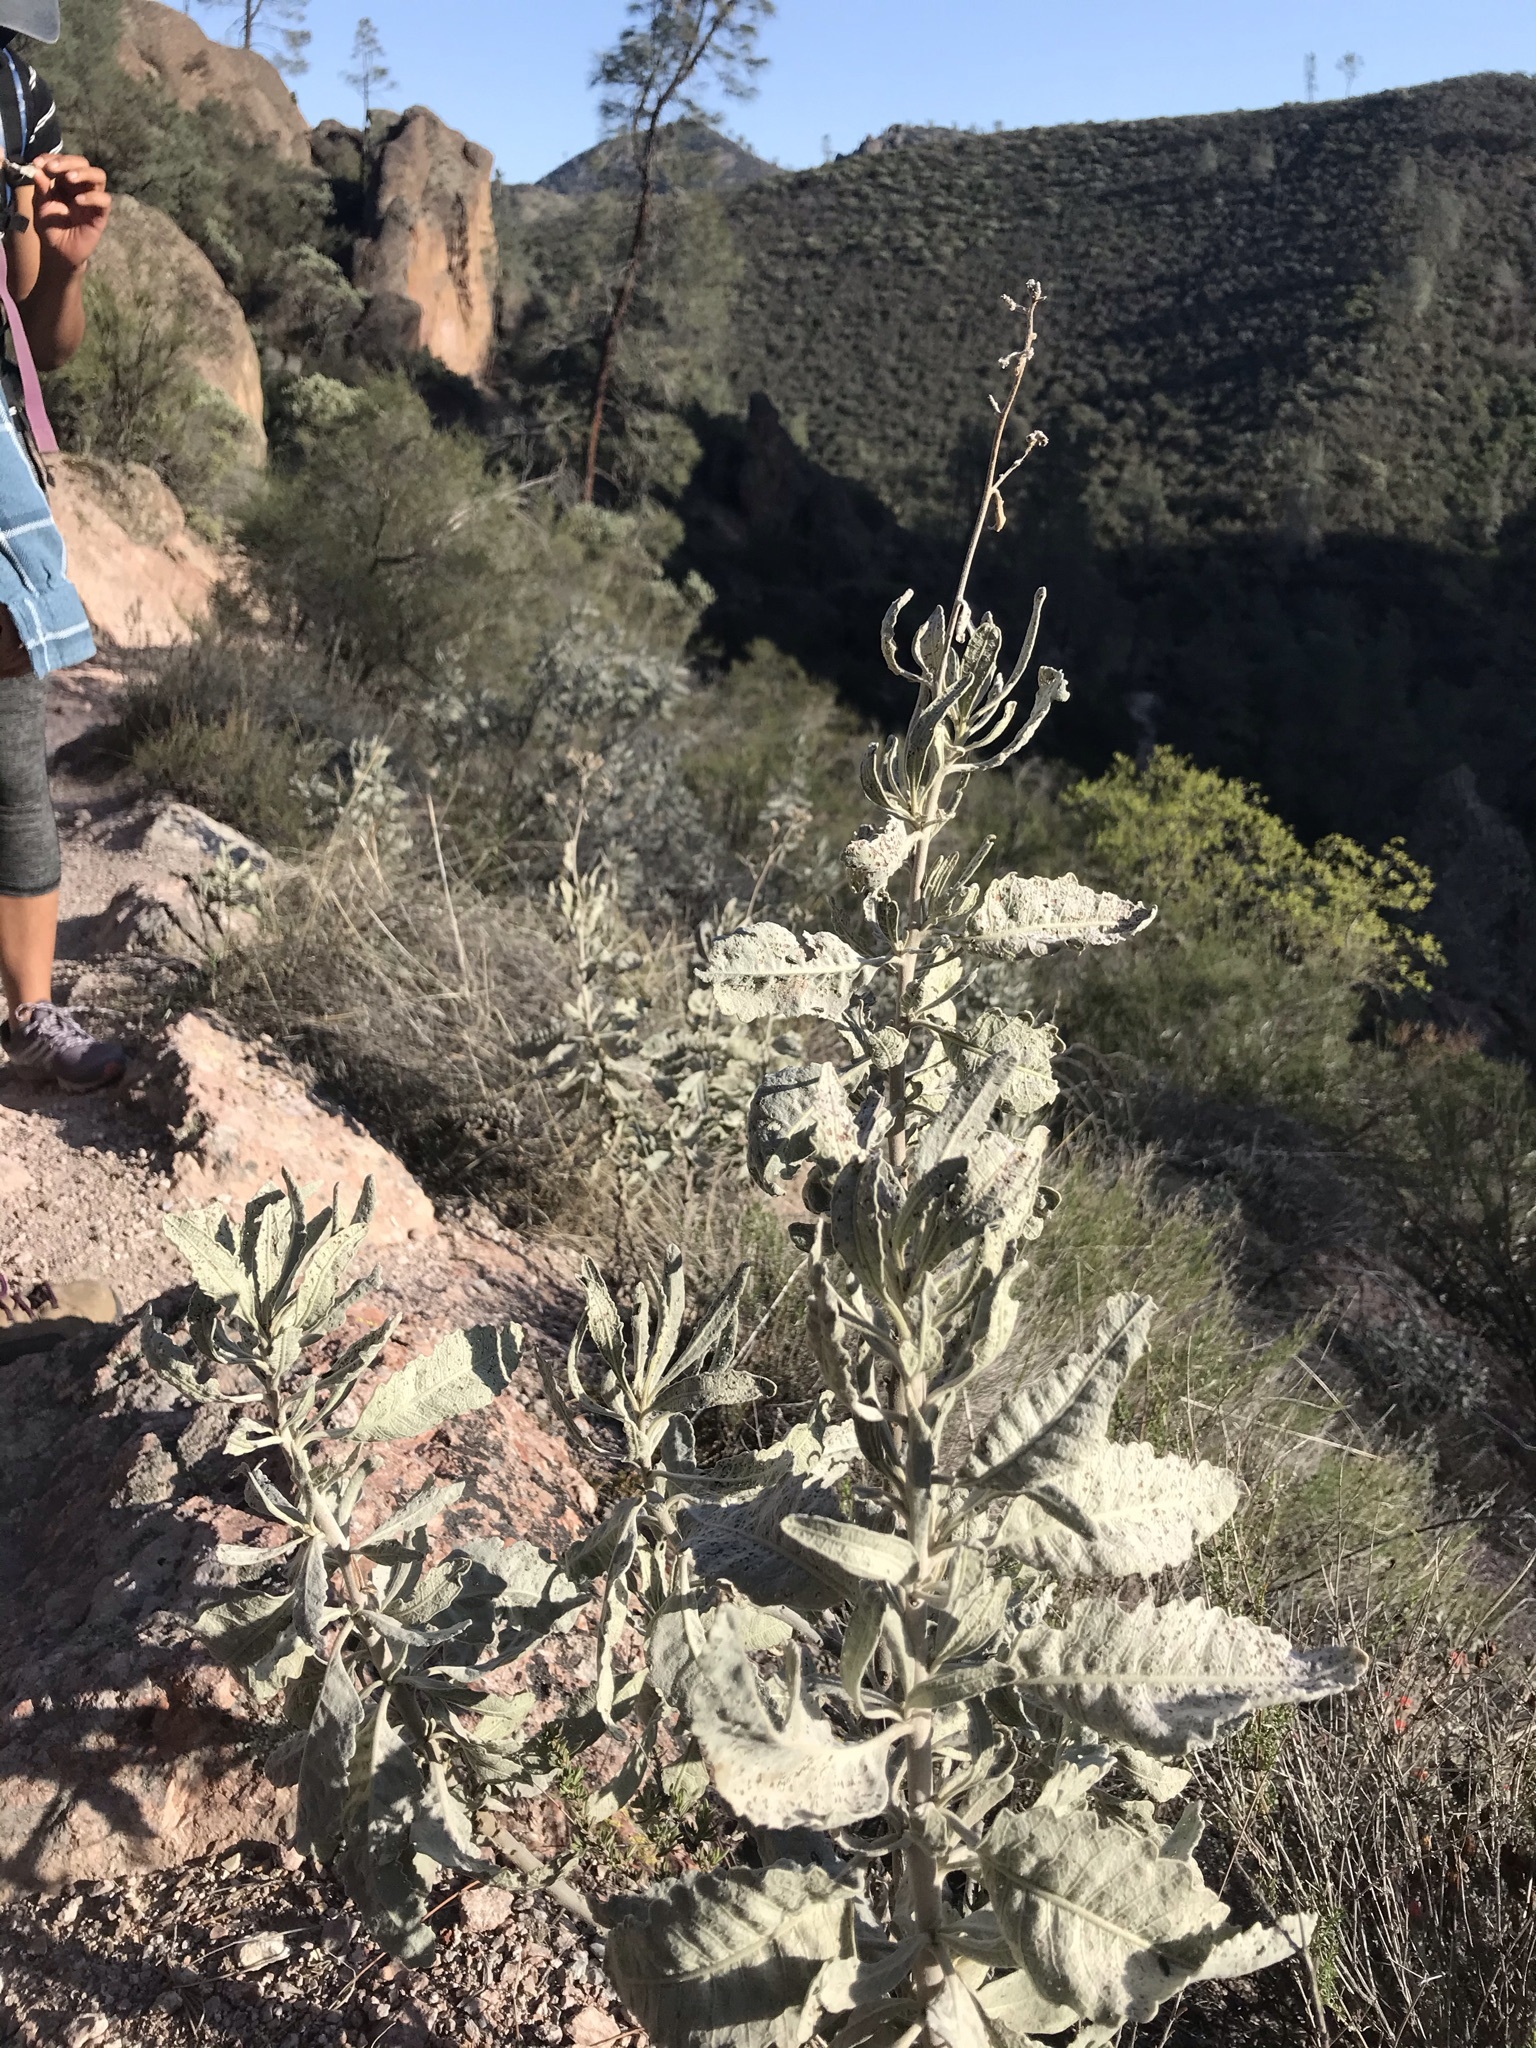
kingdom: Plantae
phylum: Tracheophyta
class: Magnoliopsida
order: Boraginales
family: Namaceae
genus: Eriodictyon
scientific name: Eriodictyon tomentosum
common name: Woolly yerba-santa
